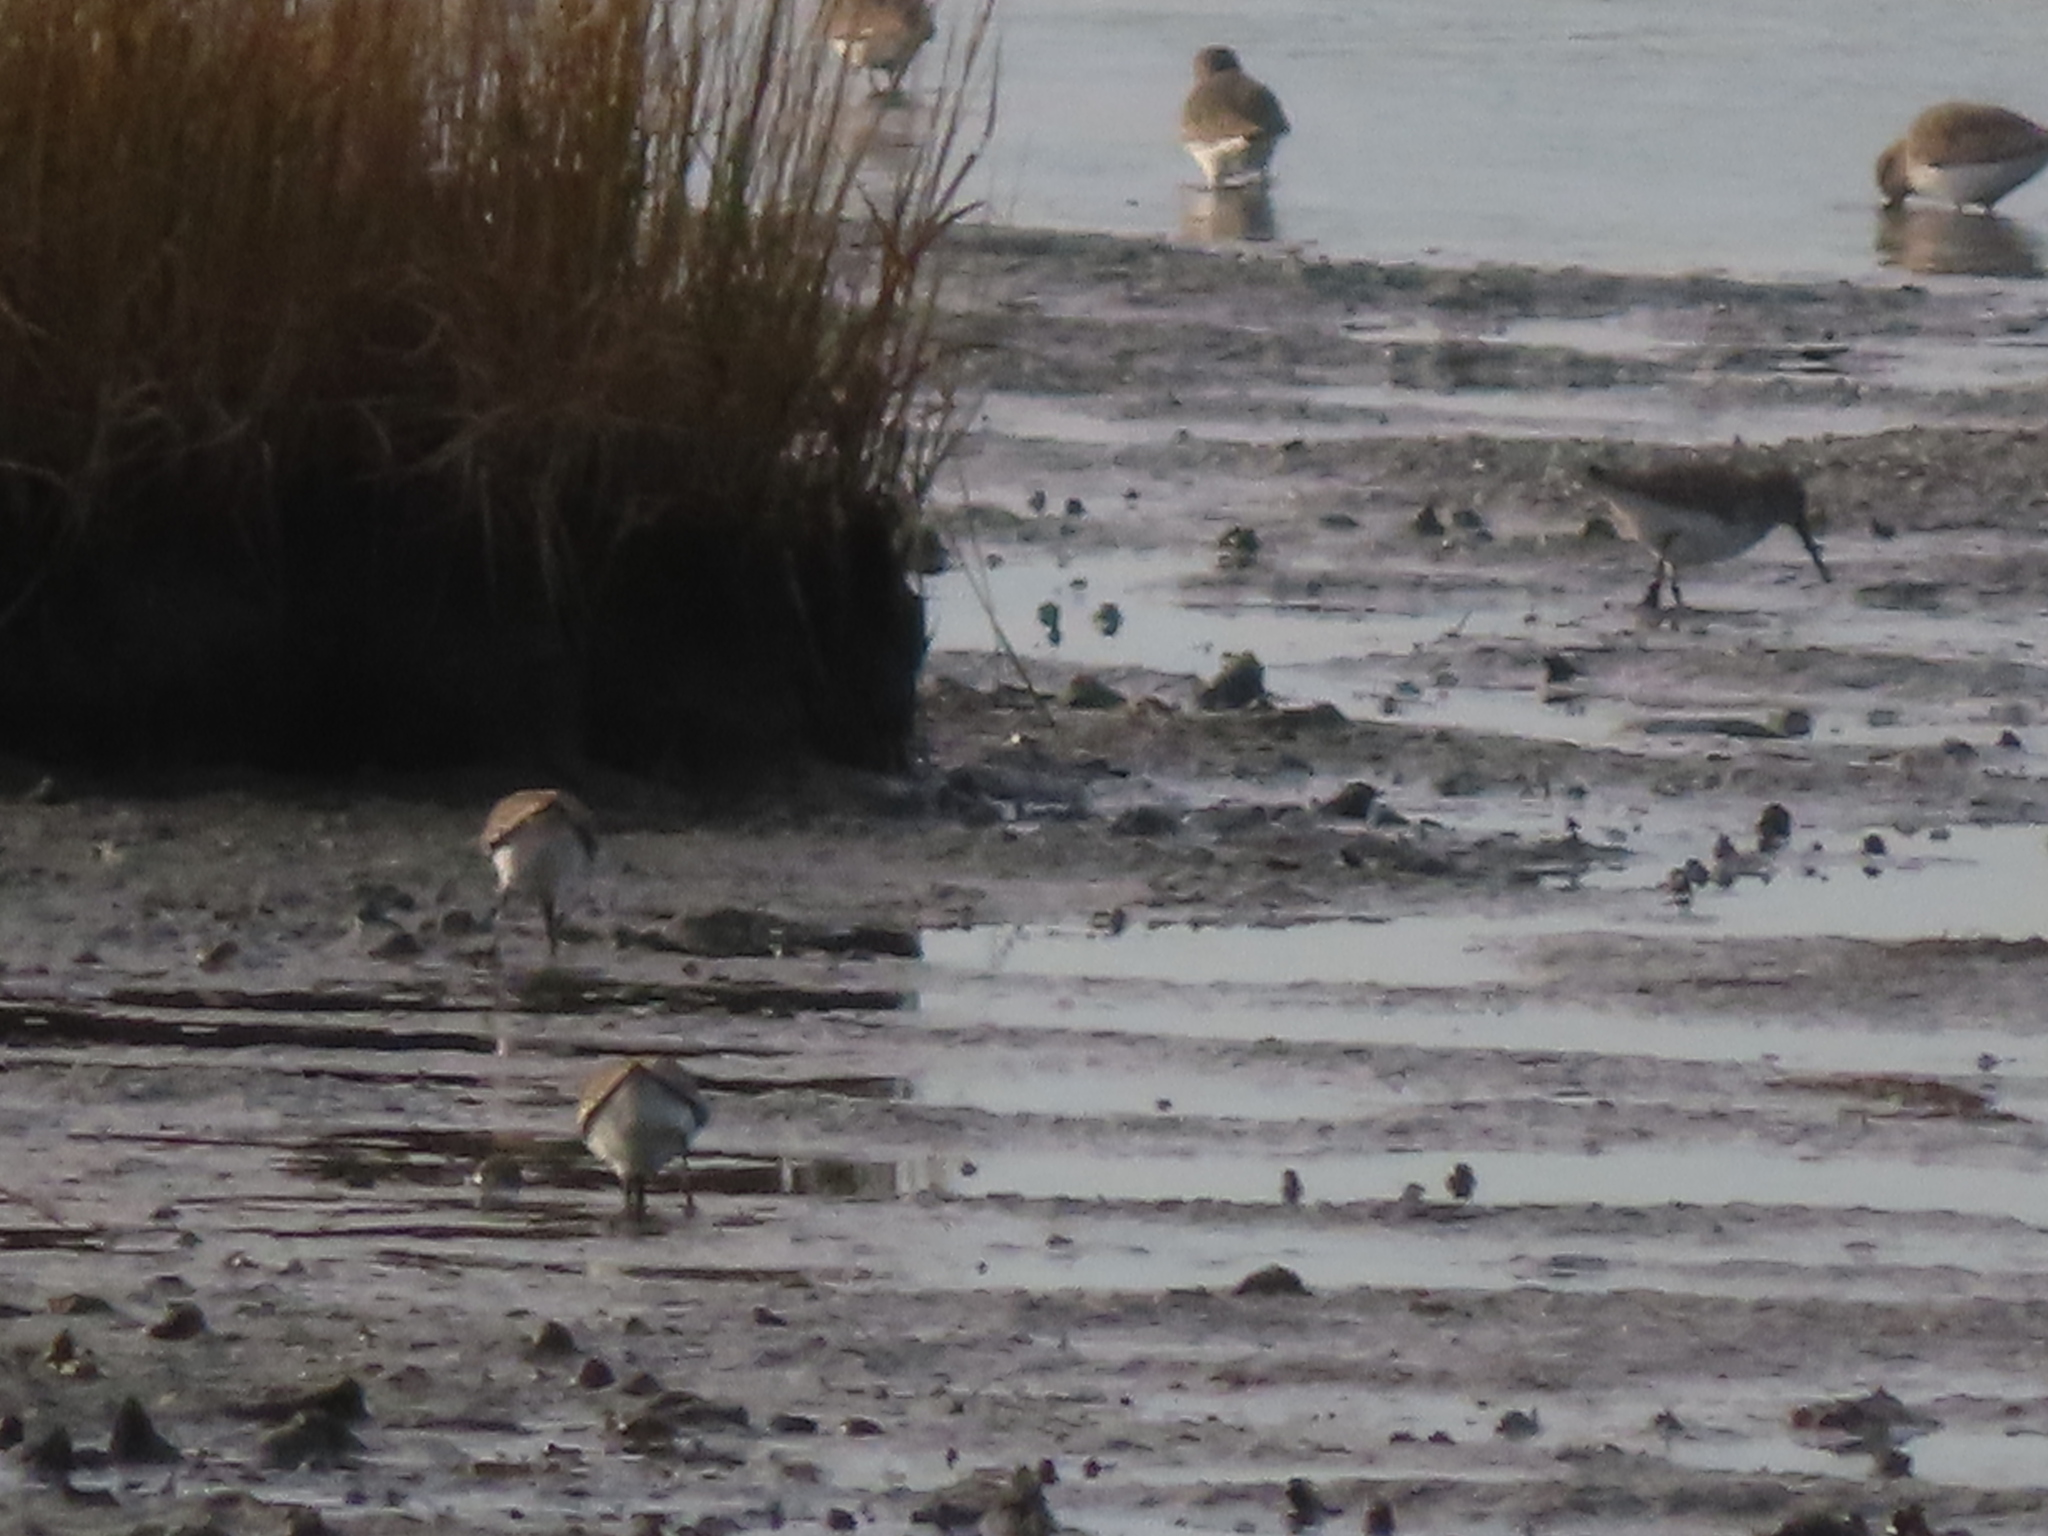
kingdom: Animalia
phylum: Chordata
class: Aves
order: Charadriiformes
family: Scolopacidae
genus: Calidris
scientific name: Calidris alpina
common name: Dunlin
